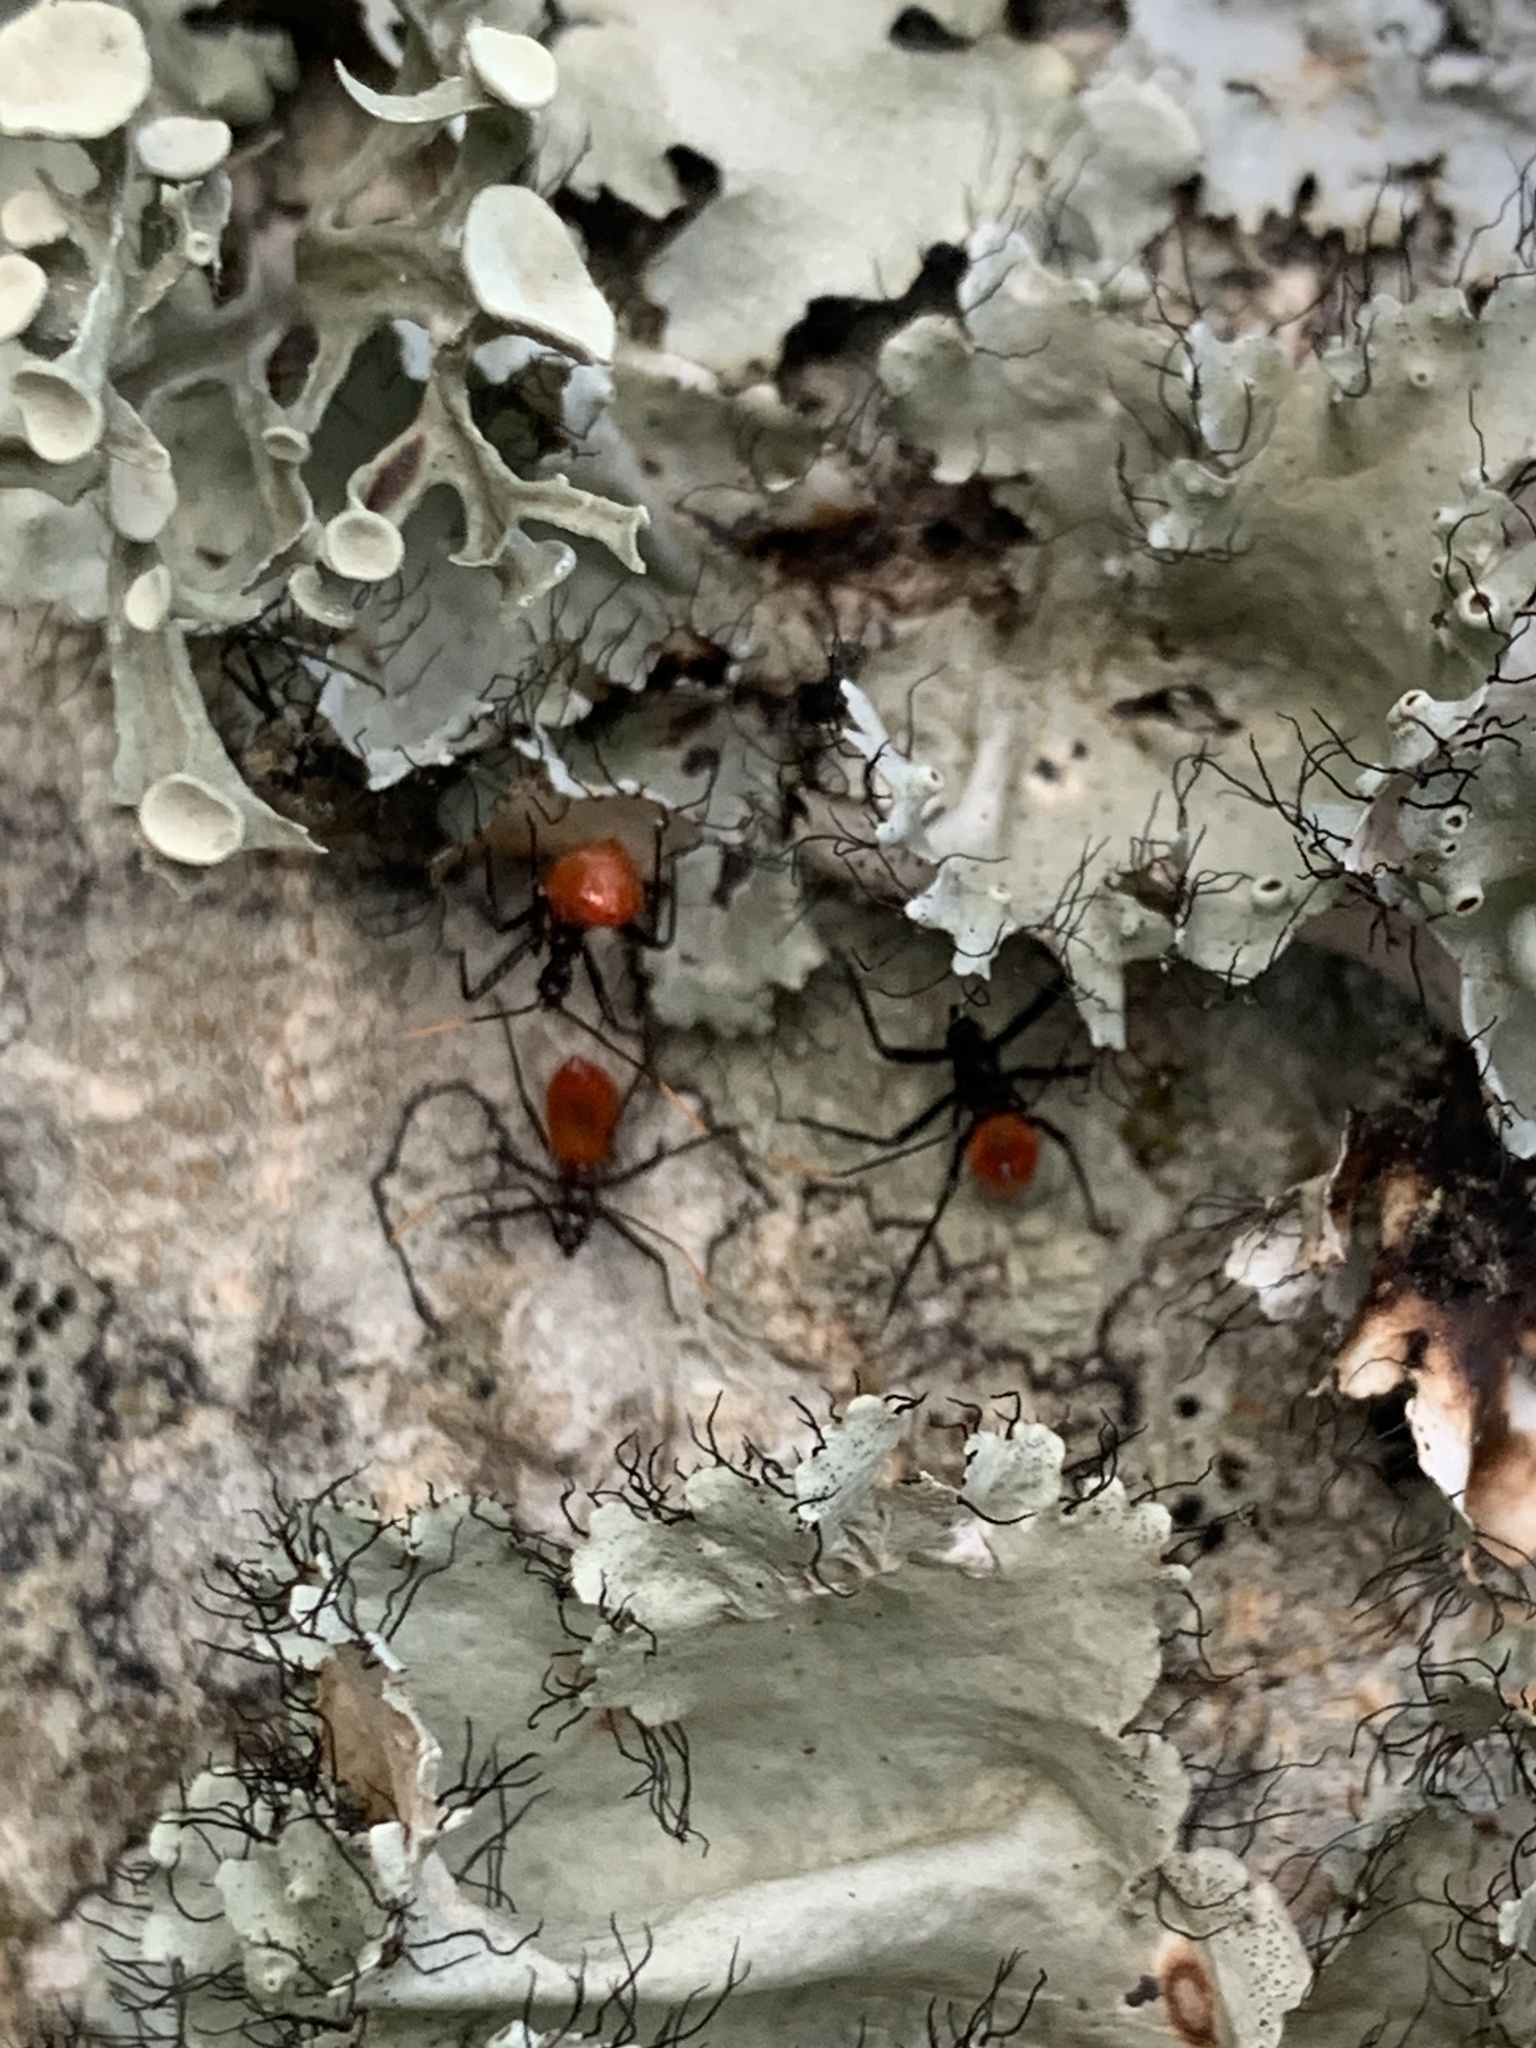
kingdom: Animalia
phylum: Arthropoda
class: Insecta
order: Hemiptera
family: Reduviidae
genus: Arilus
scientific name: Arilus cristatus
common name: North american wheel bug
